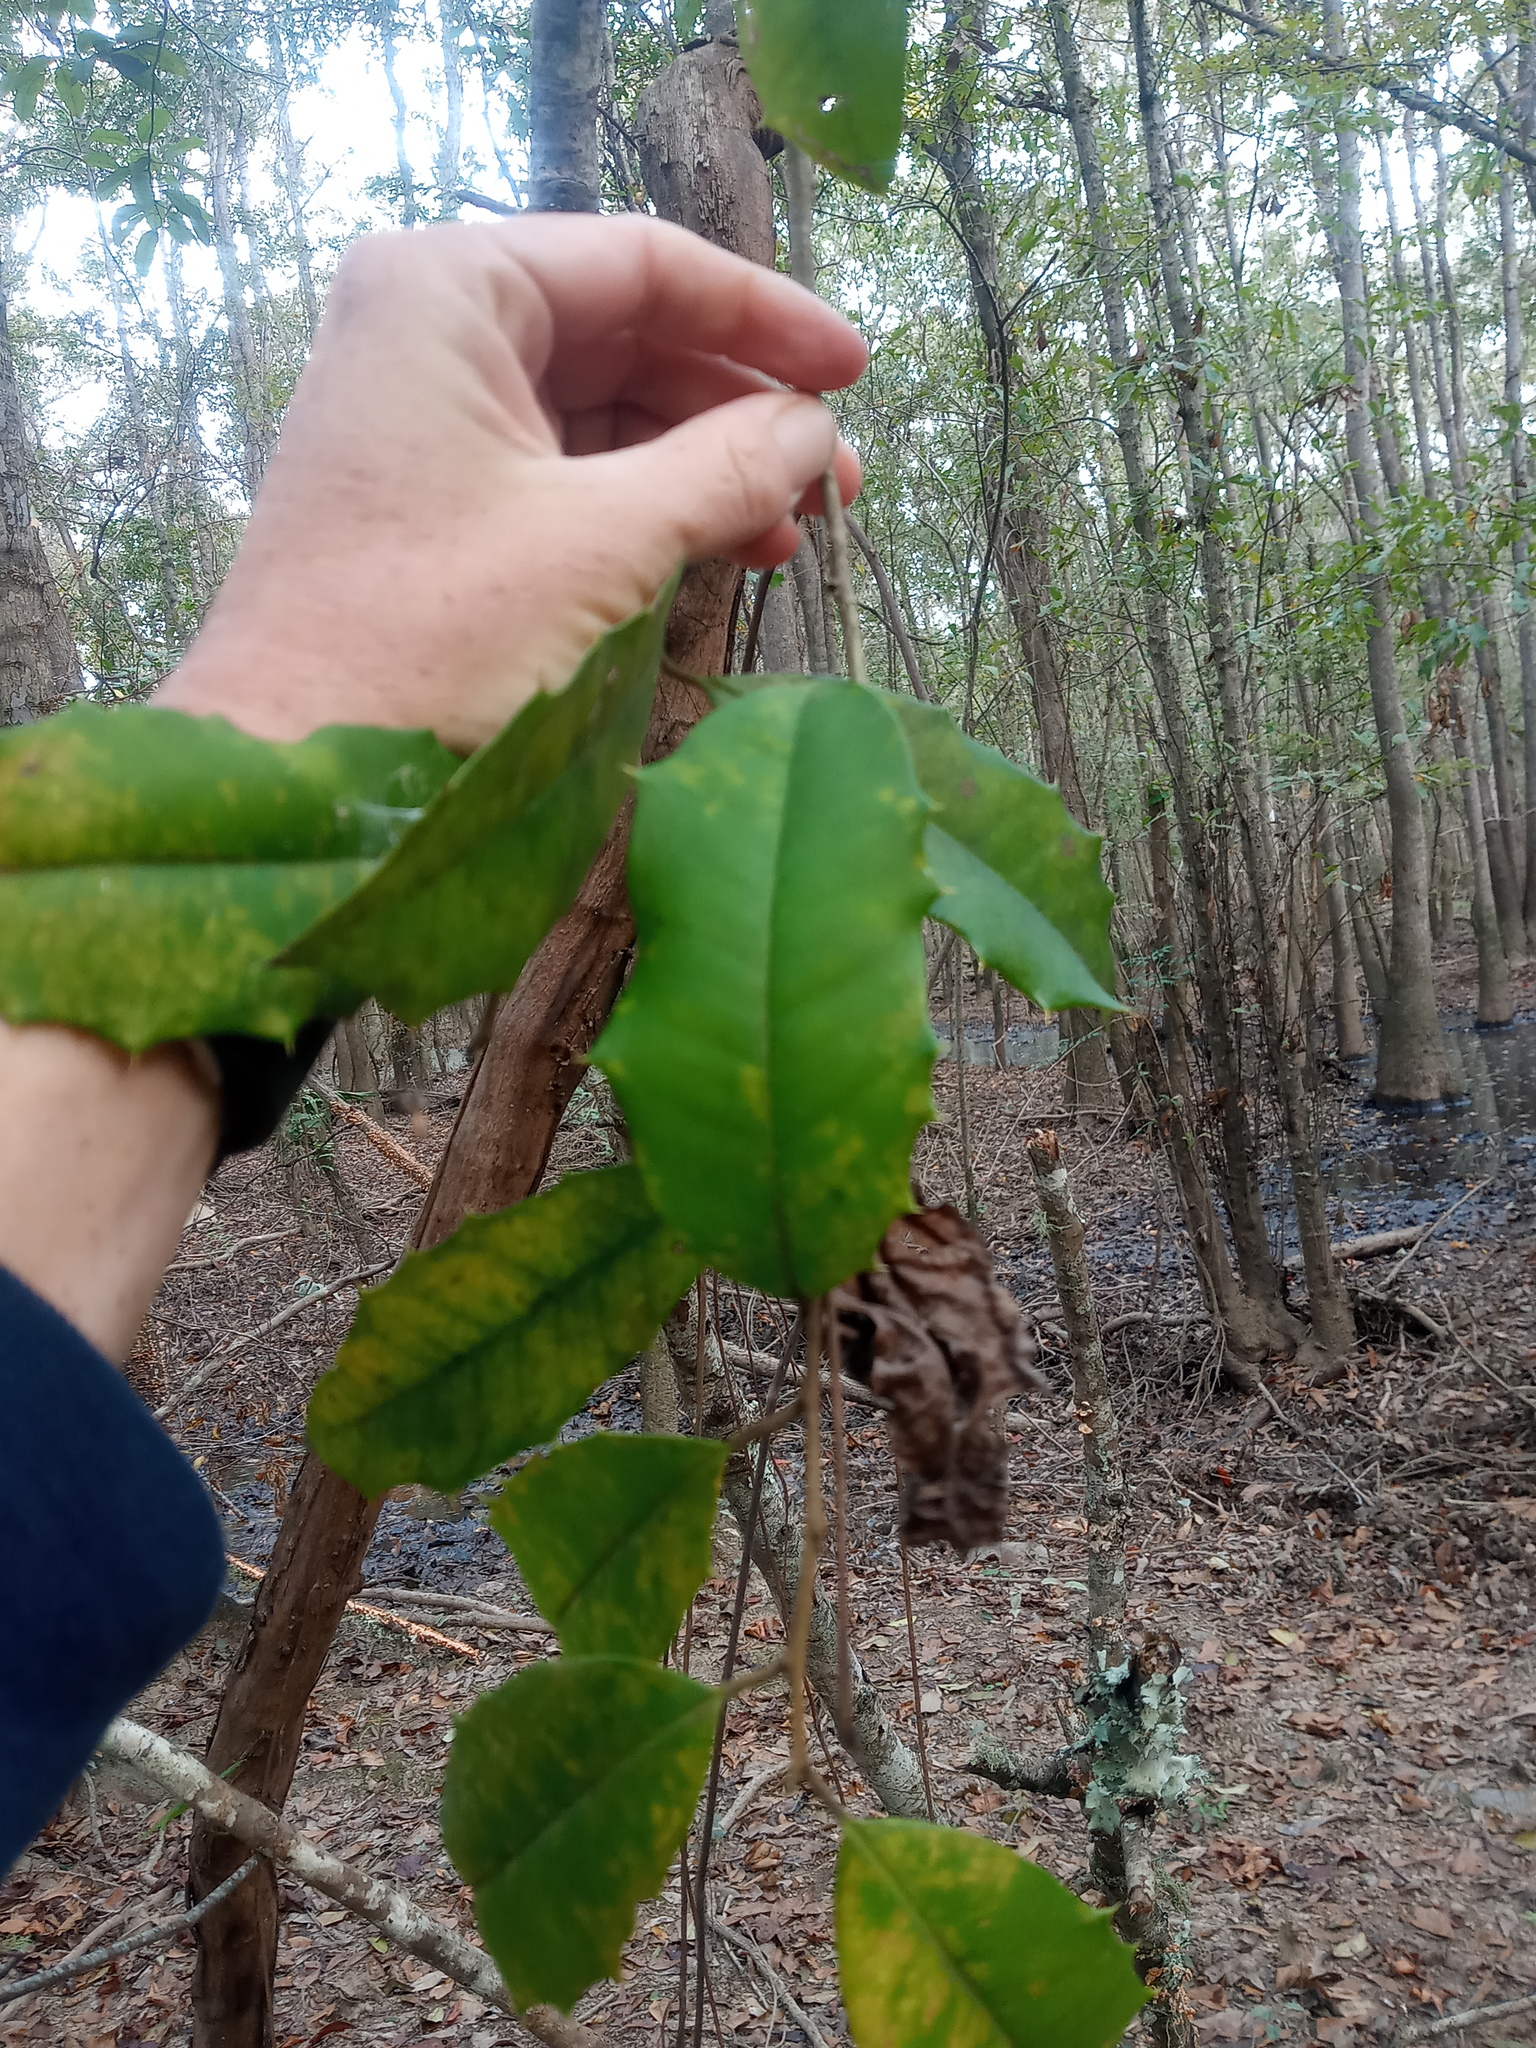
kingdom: Plantae
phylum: Tracheophyta
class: Magnoliopsida
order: Aquifoliales
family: Aquifoliaceae
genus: Ilex
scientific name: Ilex opaca
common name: American holly
